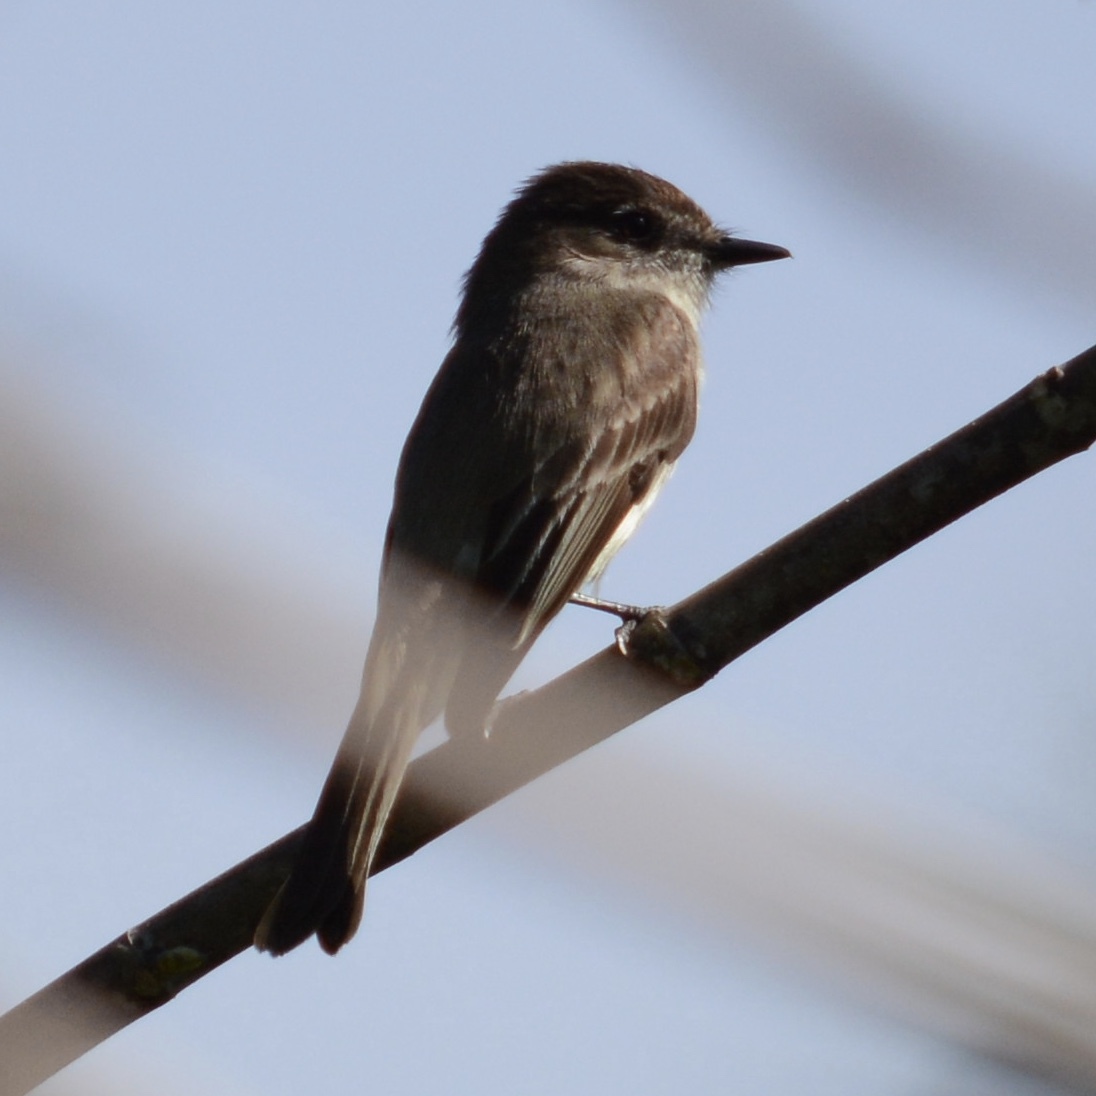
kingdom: Animalia
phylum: Chordata
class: Aves
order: Passeriformes
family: Tyrannidae
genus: Sayornis
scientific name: Sayornis phoebe
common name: Eastern phoebe
